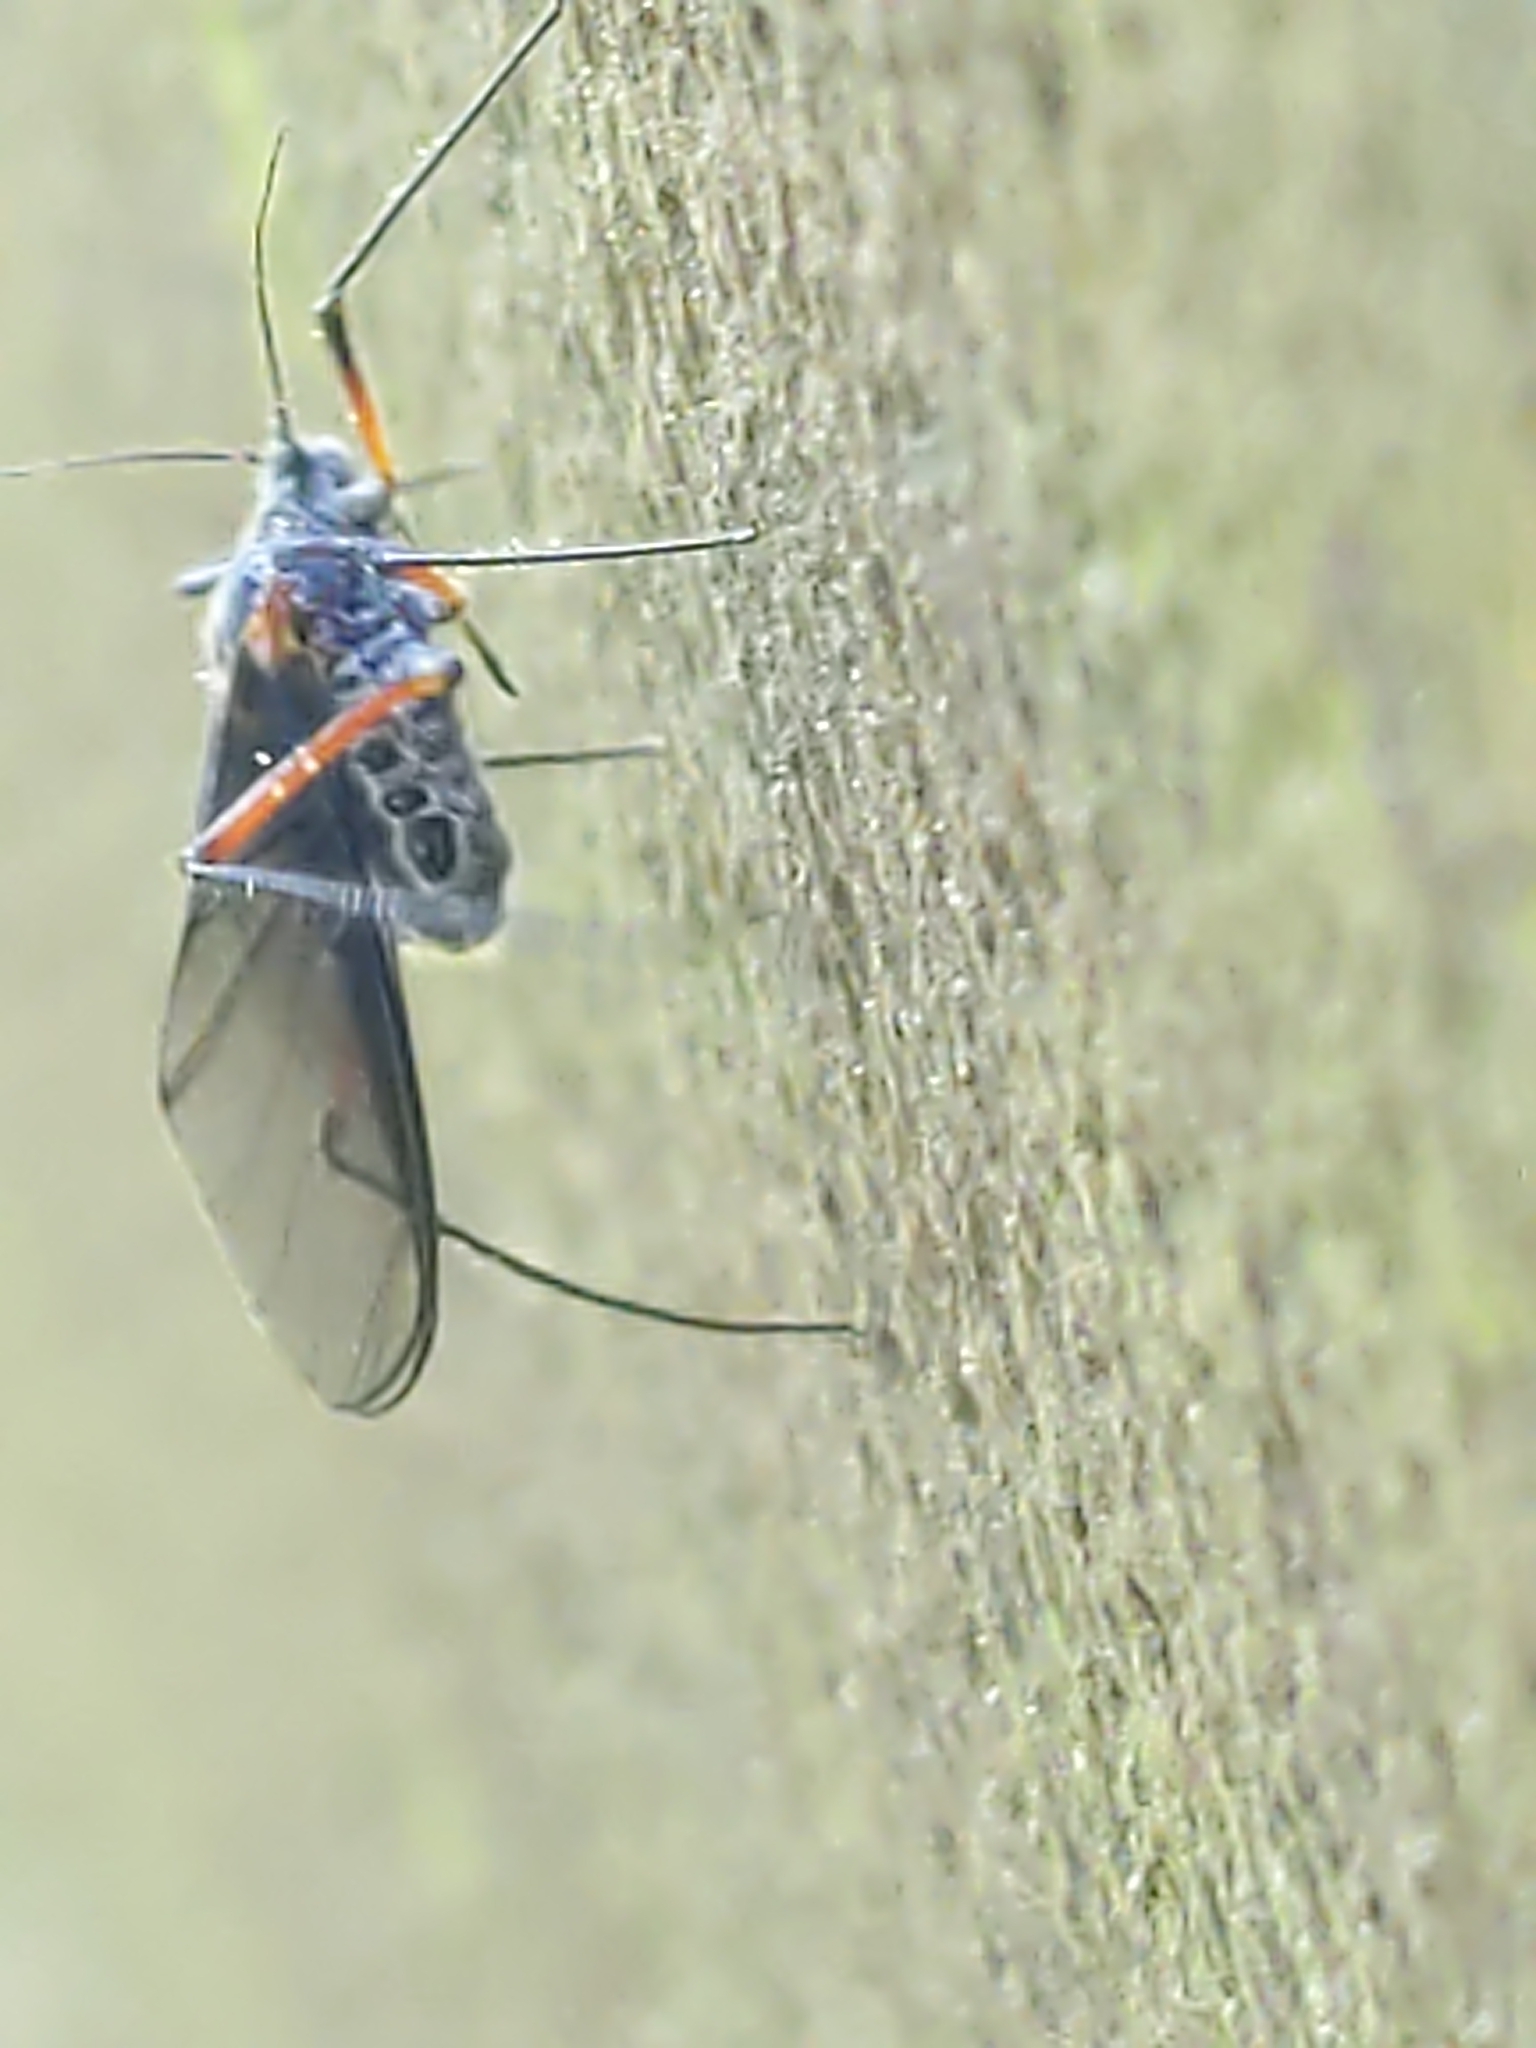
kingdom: Animalia
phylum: Arthropoda
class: Insecta
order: Hemiptera
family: Aphididae
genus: Longistigma
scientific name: Longistigma caryae
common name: Giant bark aphid
